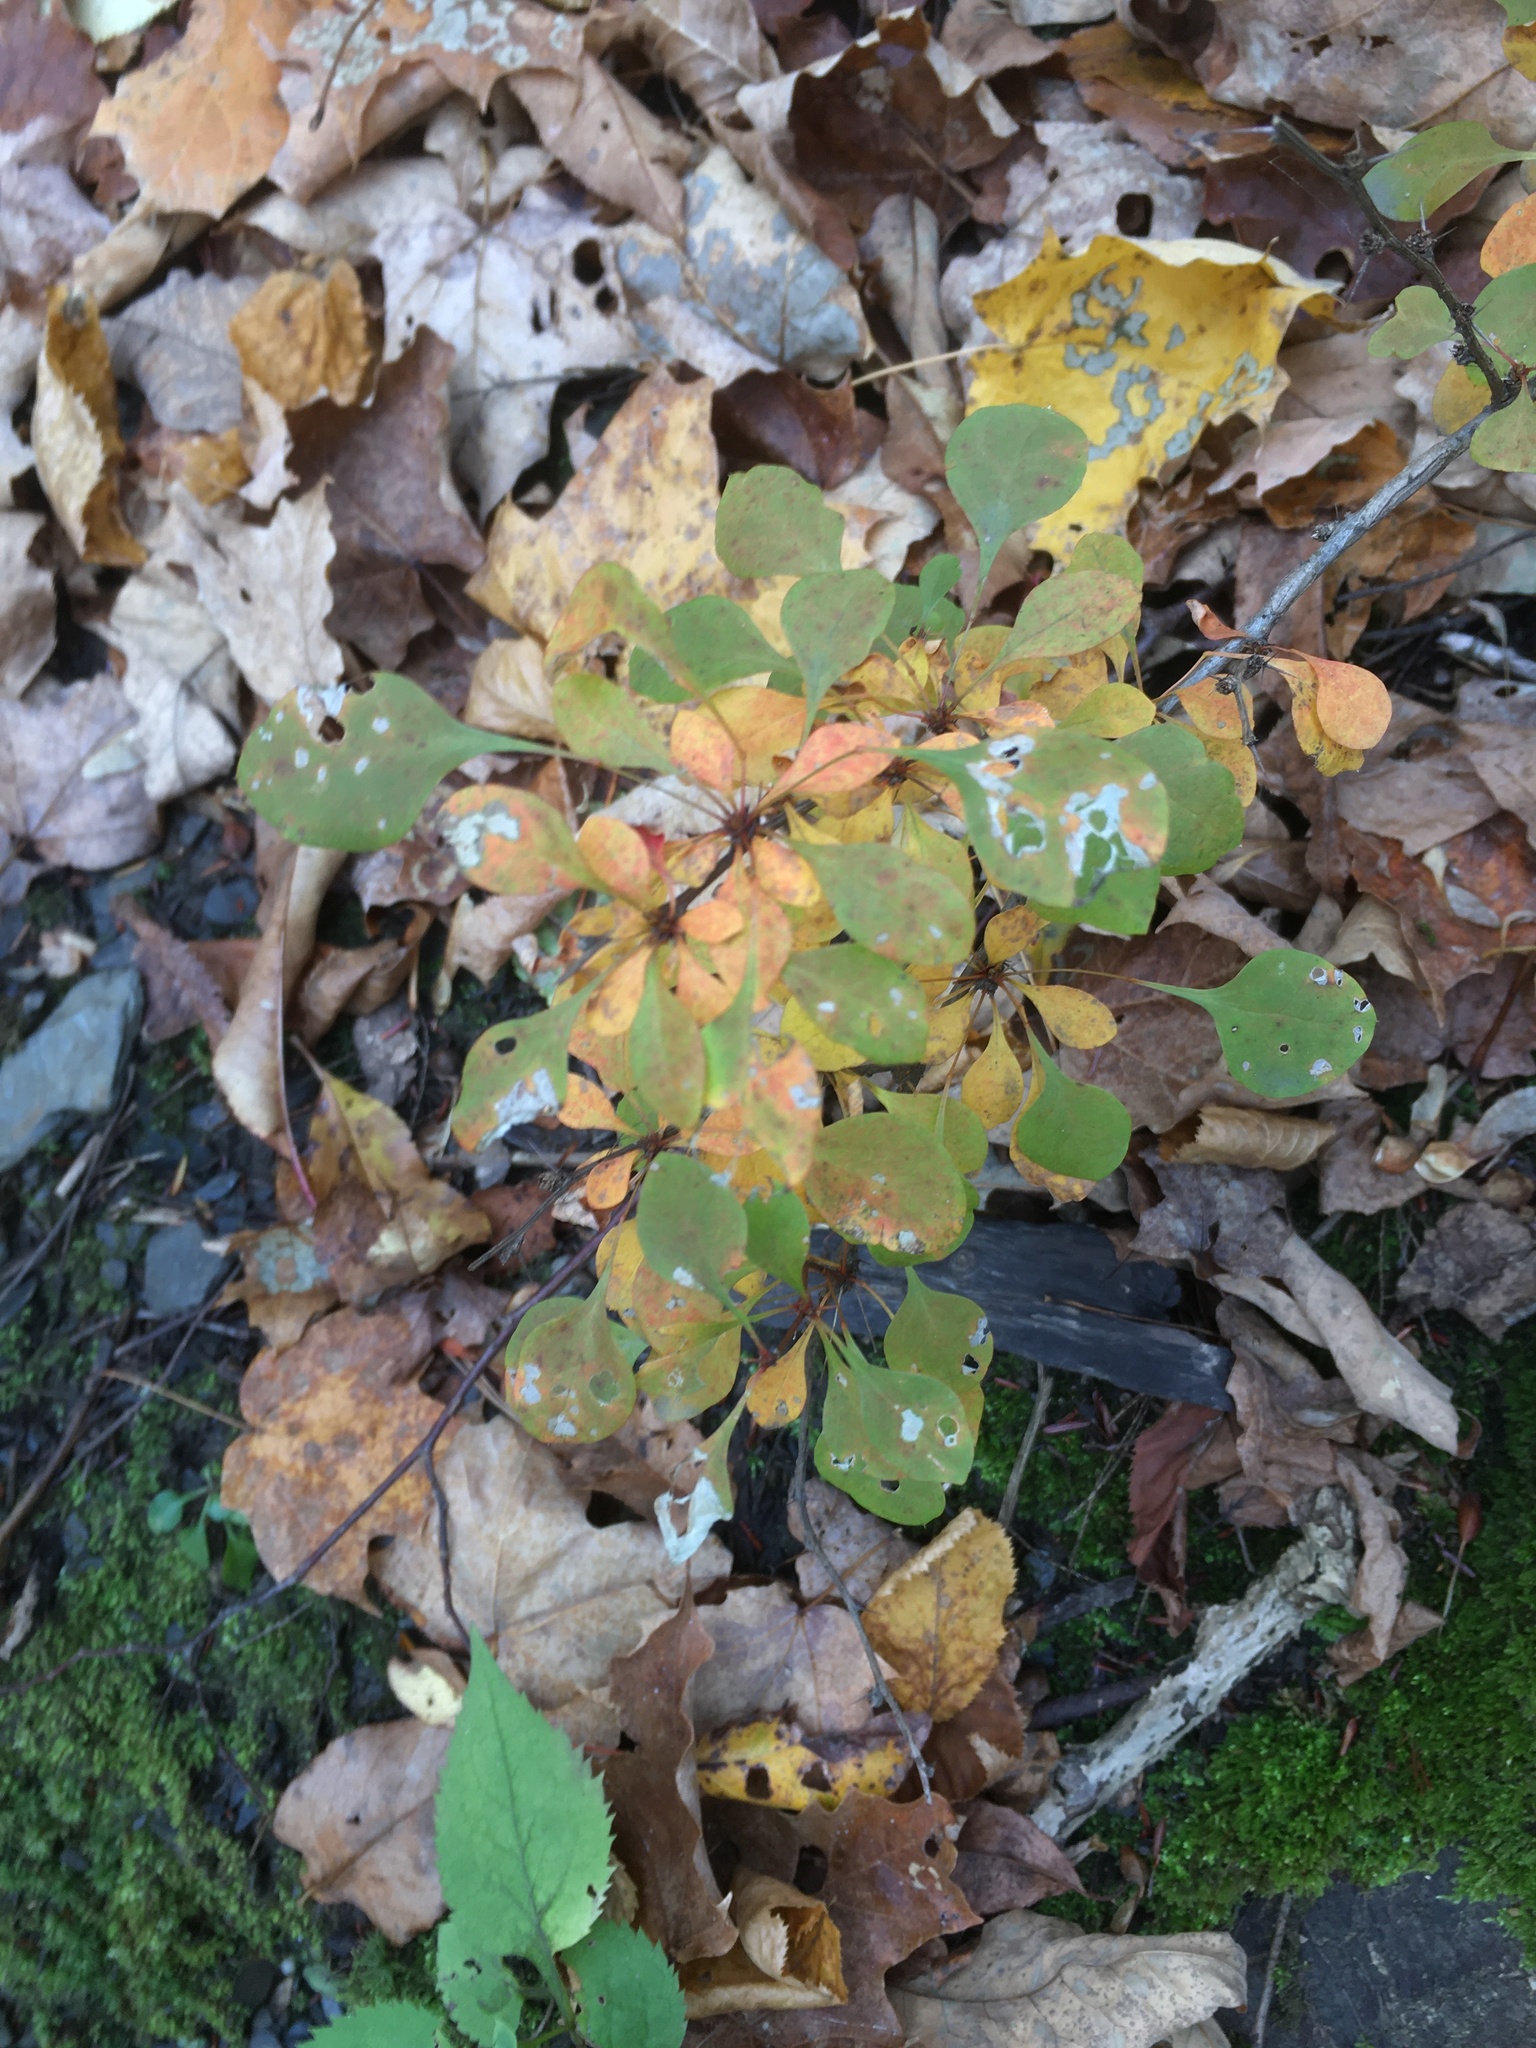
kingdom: Plantae
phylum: Tracheophyta
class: Magnoliopsida
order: Ranunculales
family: Berberidaceae
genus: Berberis
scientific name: Berberis thunbergii
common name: Japanese barberry
